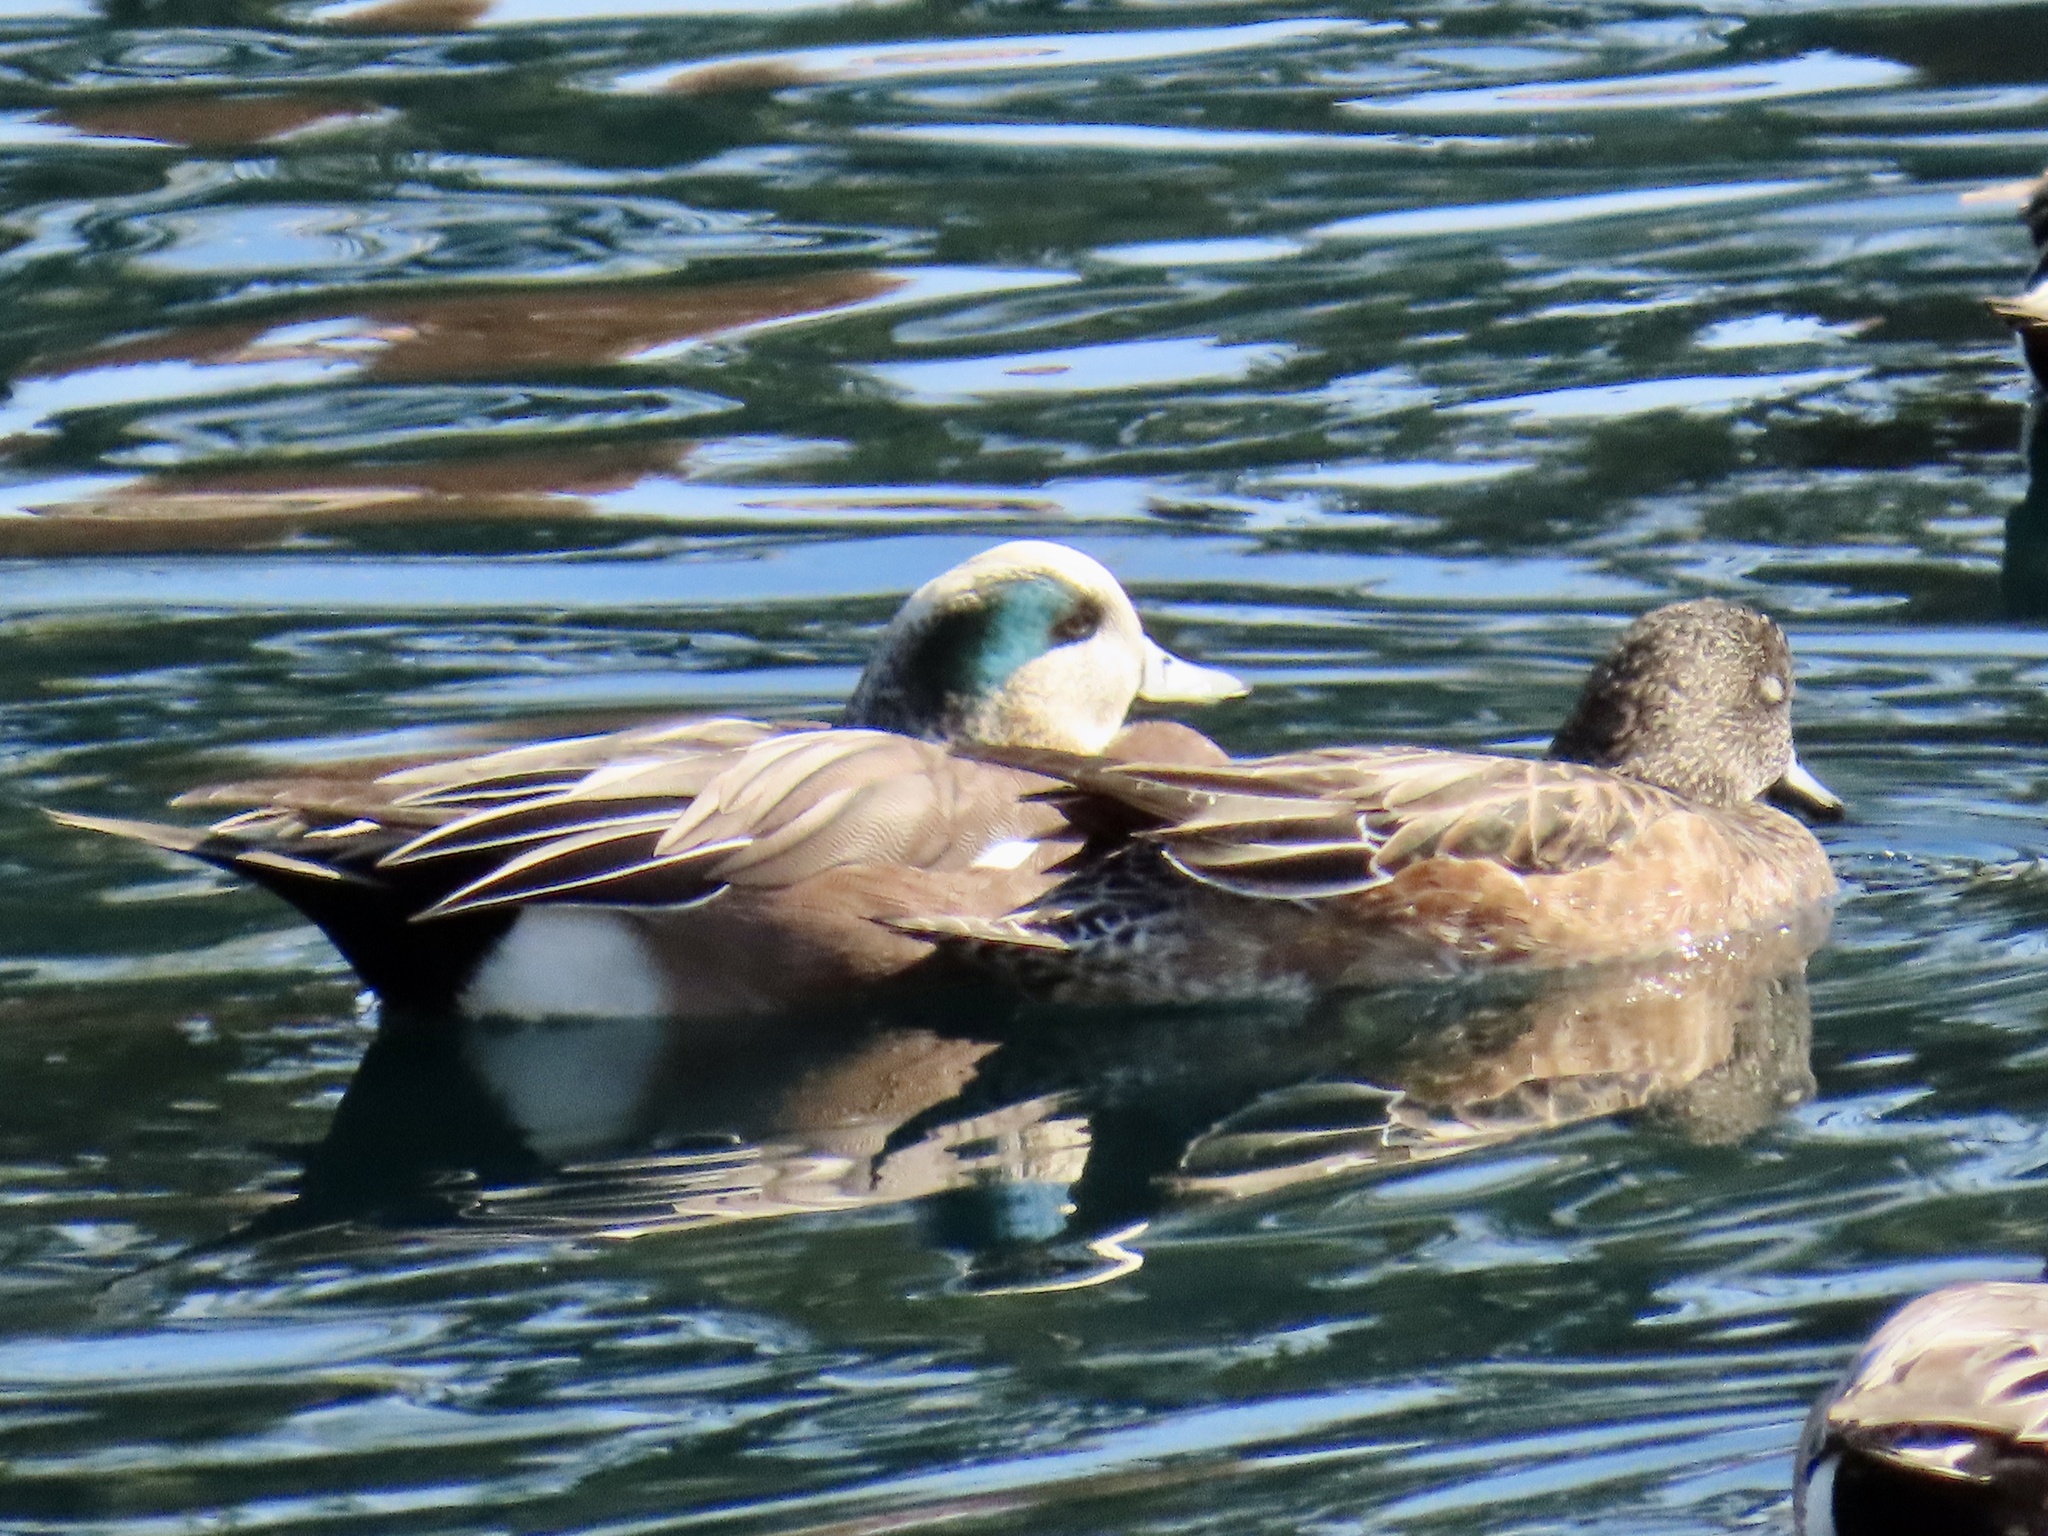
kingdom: Animalia
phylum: Chordata
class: Aves
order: Anseriformes
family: Anatidae
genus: Mareca
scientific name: Mareca americana
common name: American wigeon
